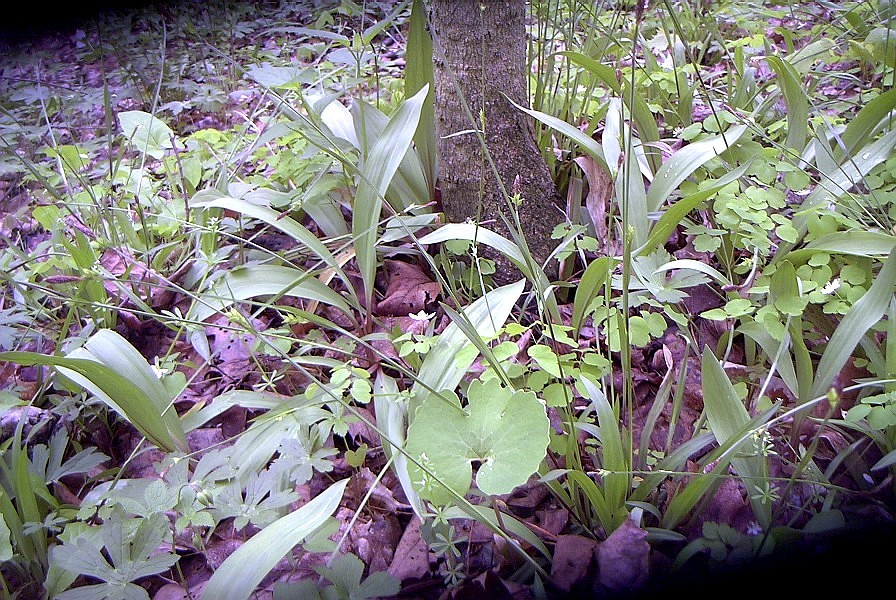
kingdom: Plantae
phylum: Tracheophyta
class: Liliopsida
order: Poales
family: Cyperaceae
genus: Carex
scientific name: Carex careyana
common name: Carey's sedge
